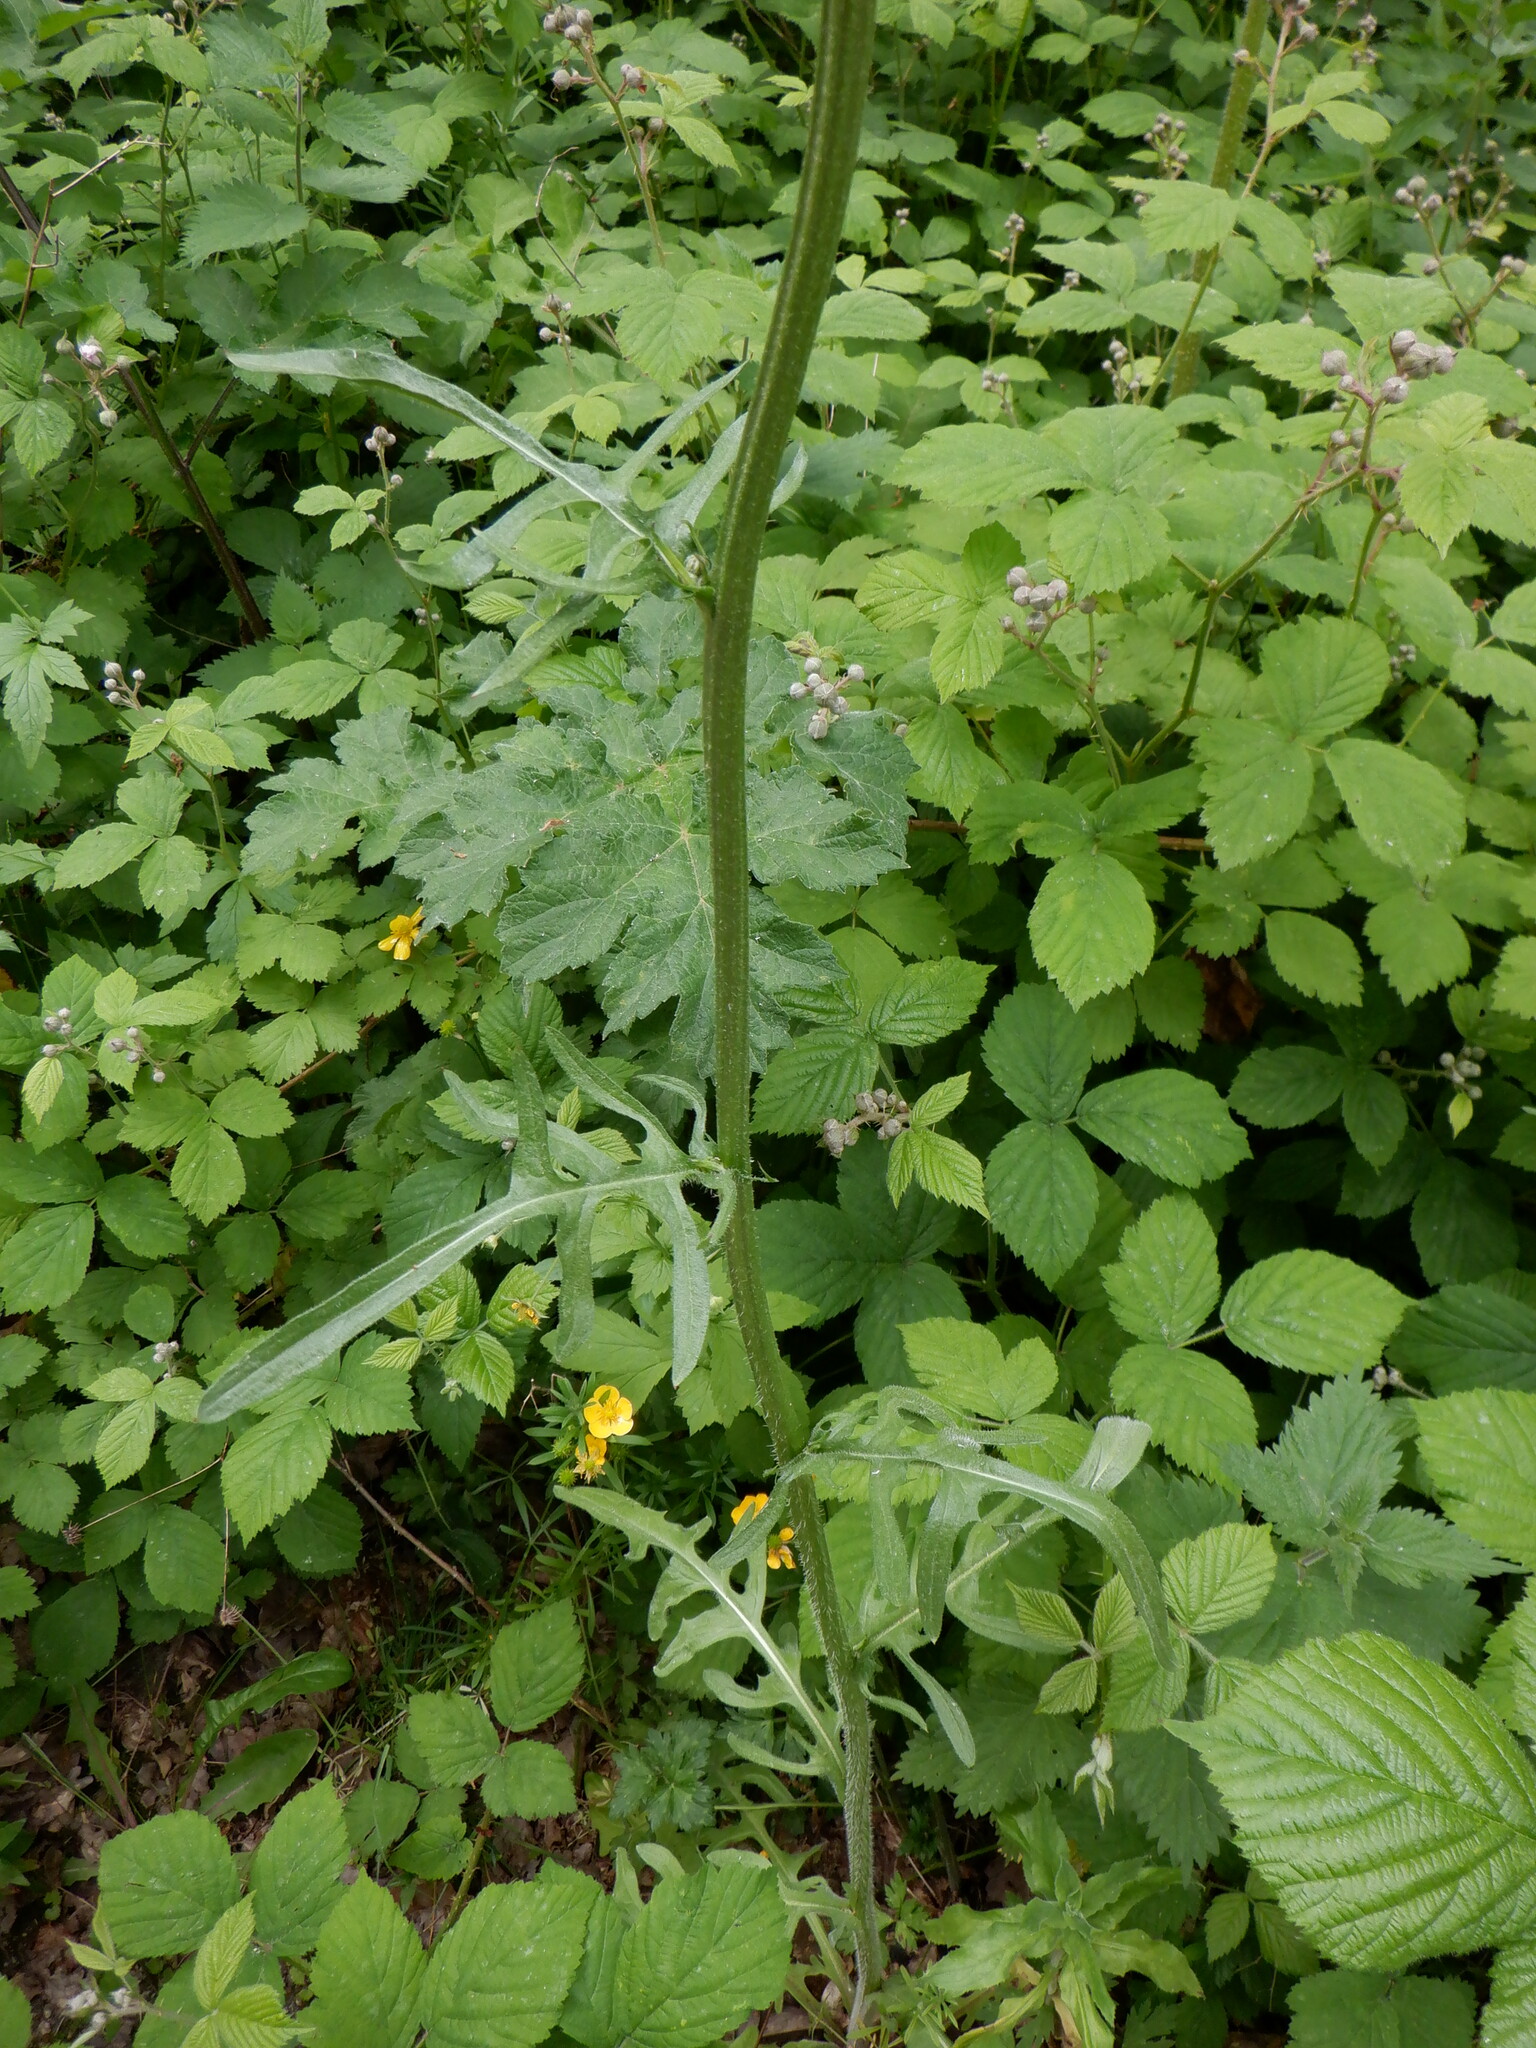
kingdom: Plantae
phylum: Tracheophyta
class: Magnoliopsida
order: Asterales
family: Asteraceae
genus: Crepis
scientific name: Crepis biennis
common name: Rough hawk's-beard
